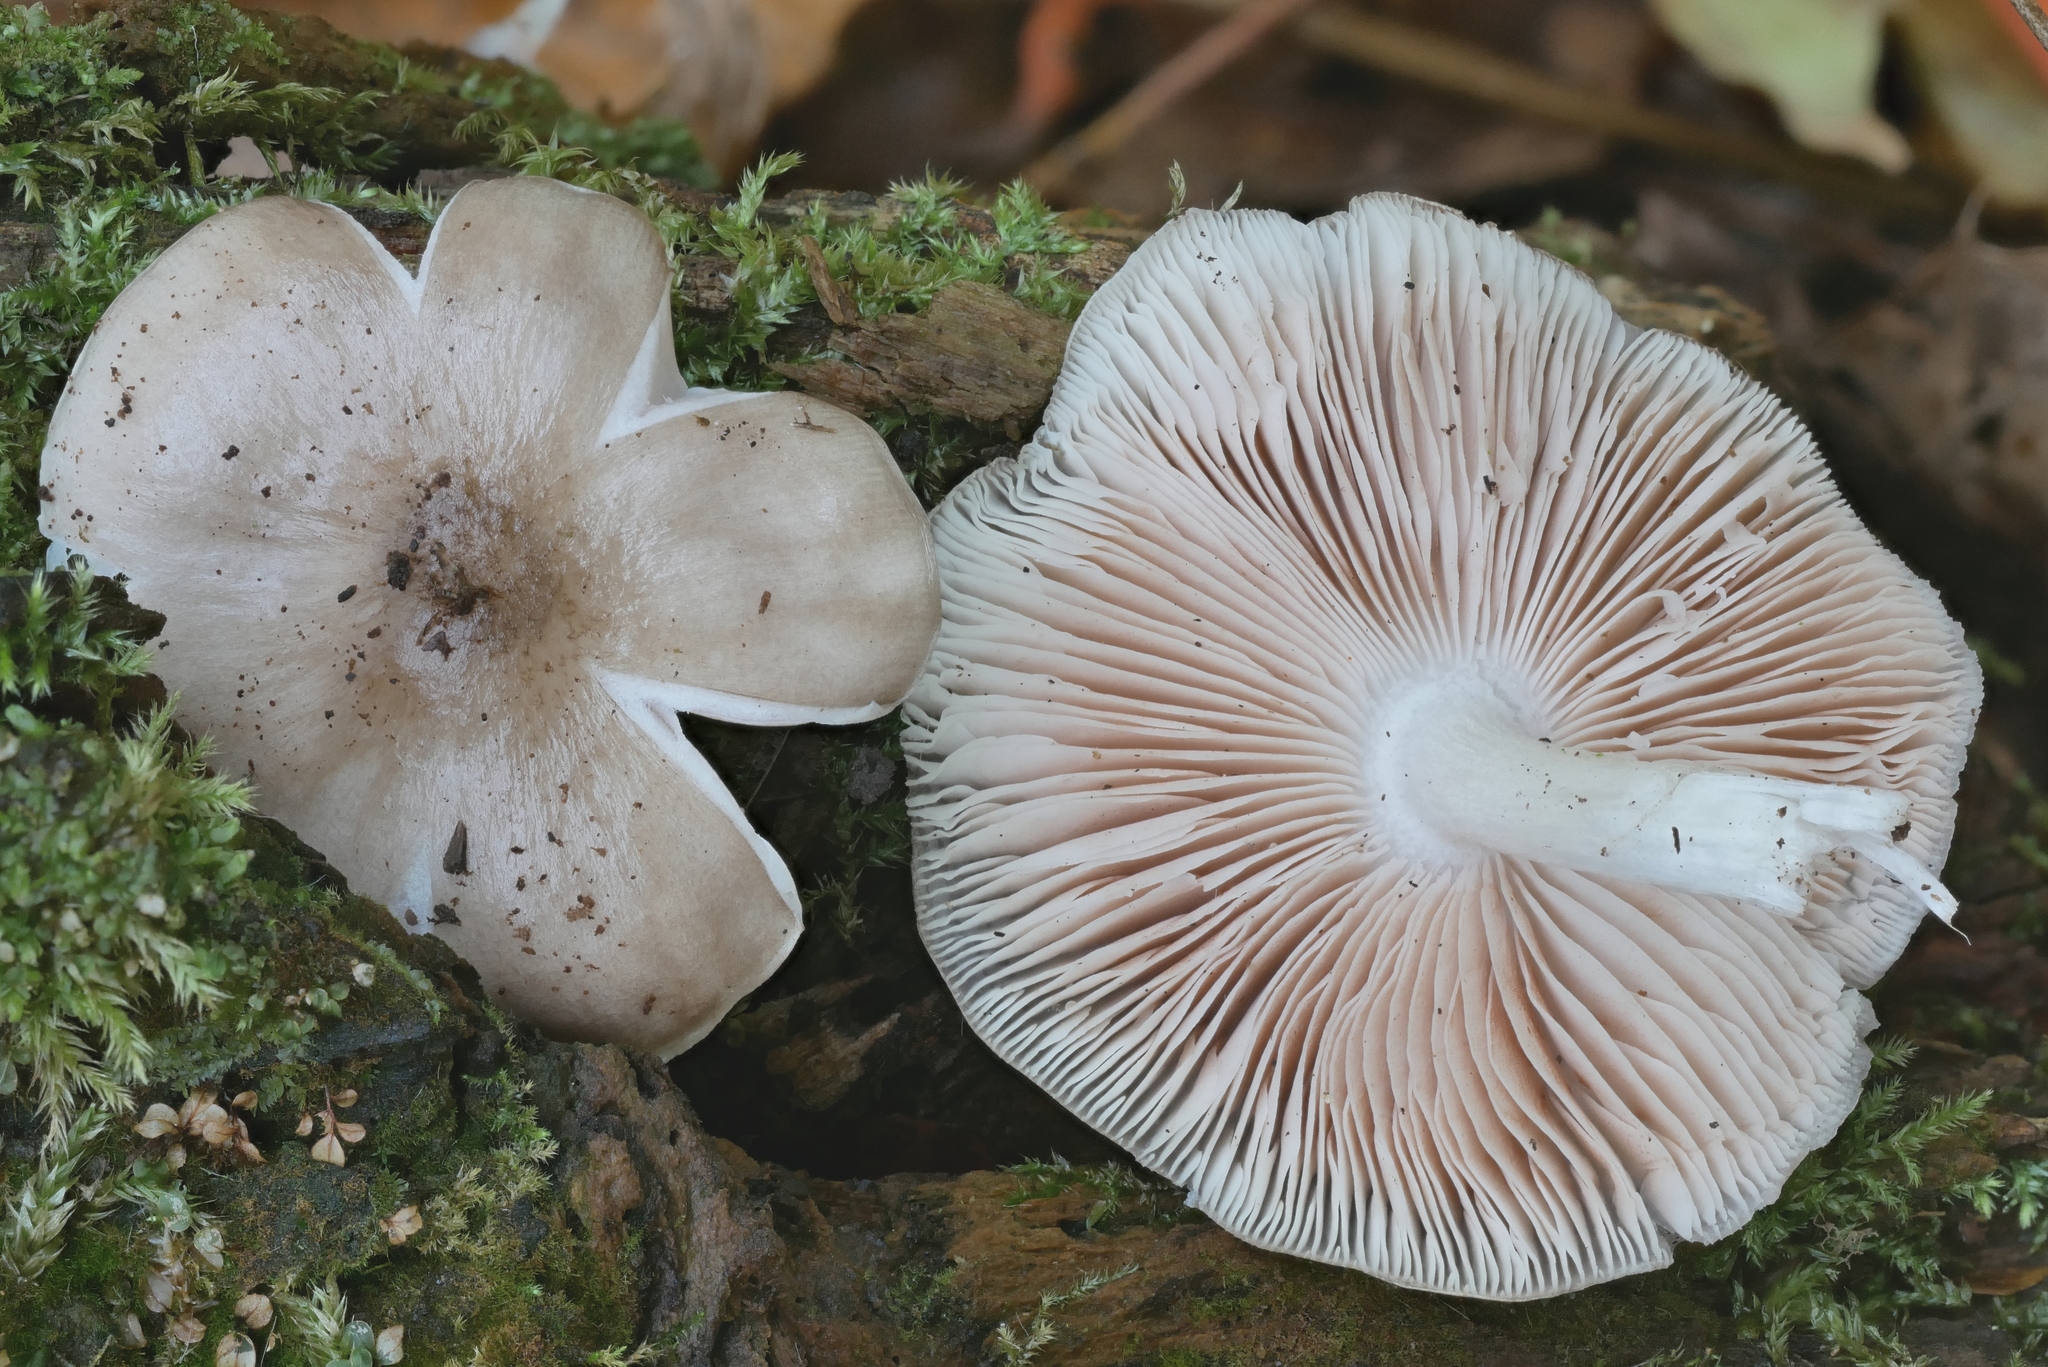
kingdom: Fungi
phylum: Basidiomycota
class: Agaricomycetes
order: Agaricales
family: Pluteaceae
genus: Pluteus
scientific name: Pluteus hongoi
